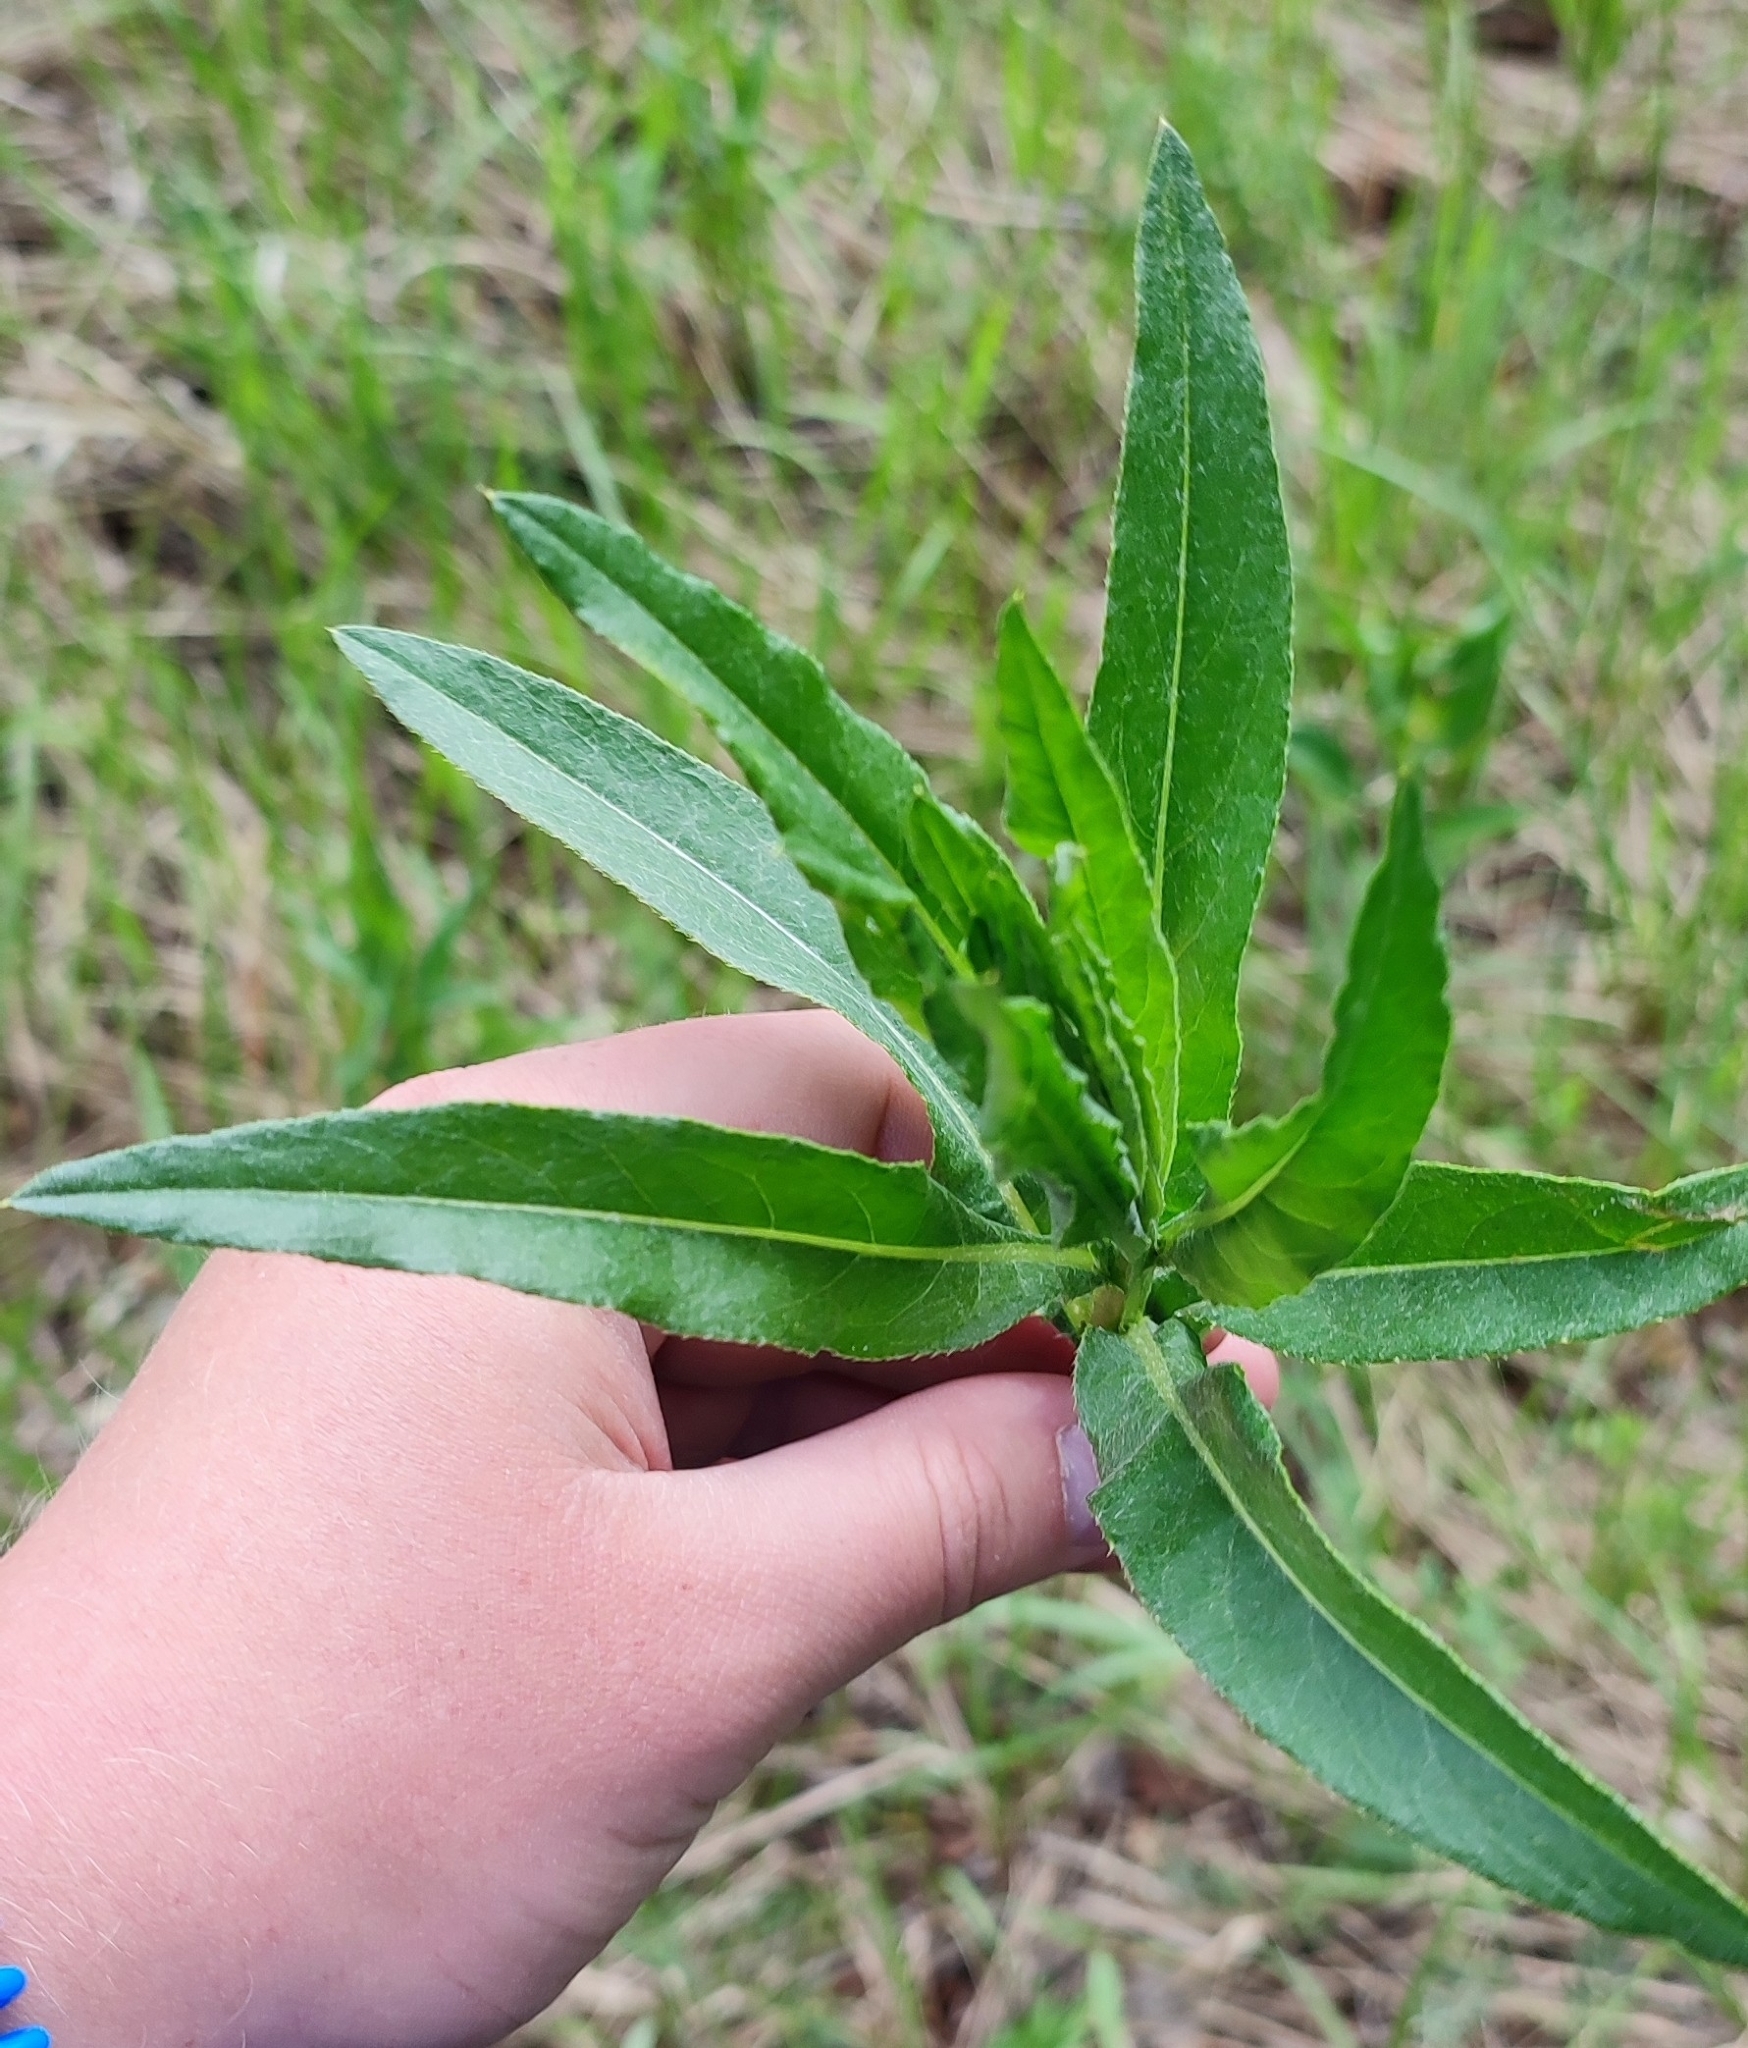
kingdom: Plantae
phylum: Tracheophyta
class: Magnoliopsida
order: Asterales
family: Asteraceae
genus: Cirsium
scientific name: Cirsium arvense
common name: Creeping thistle
